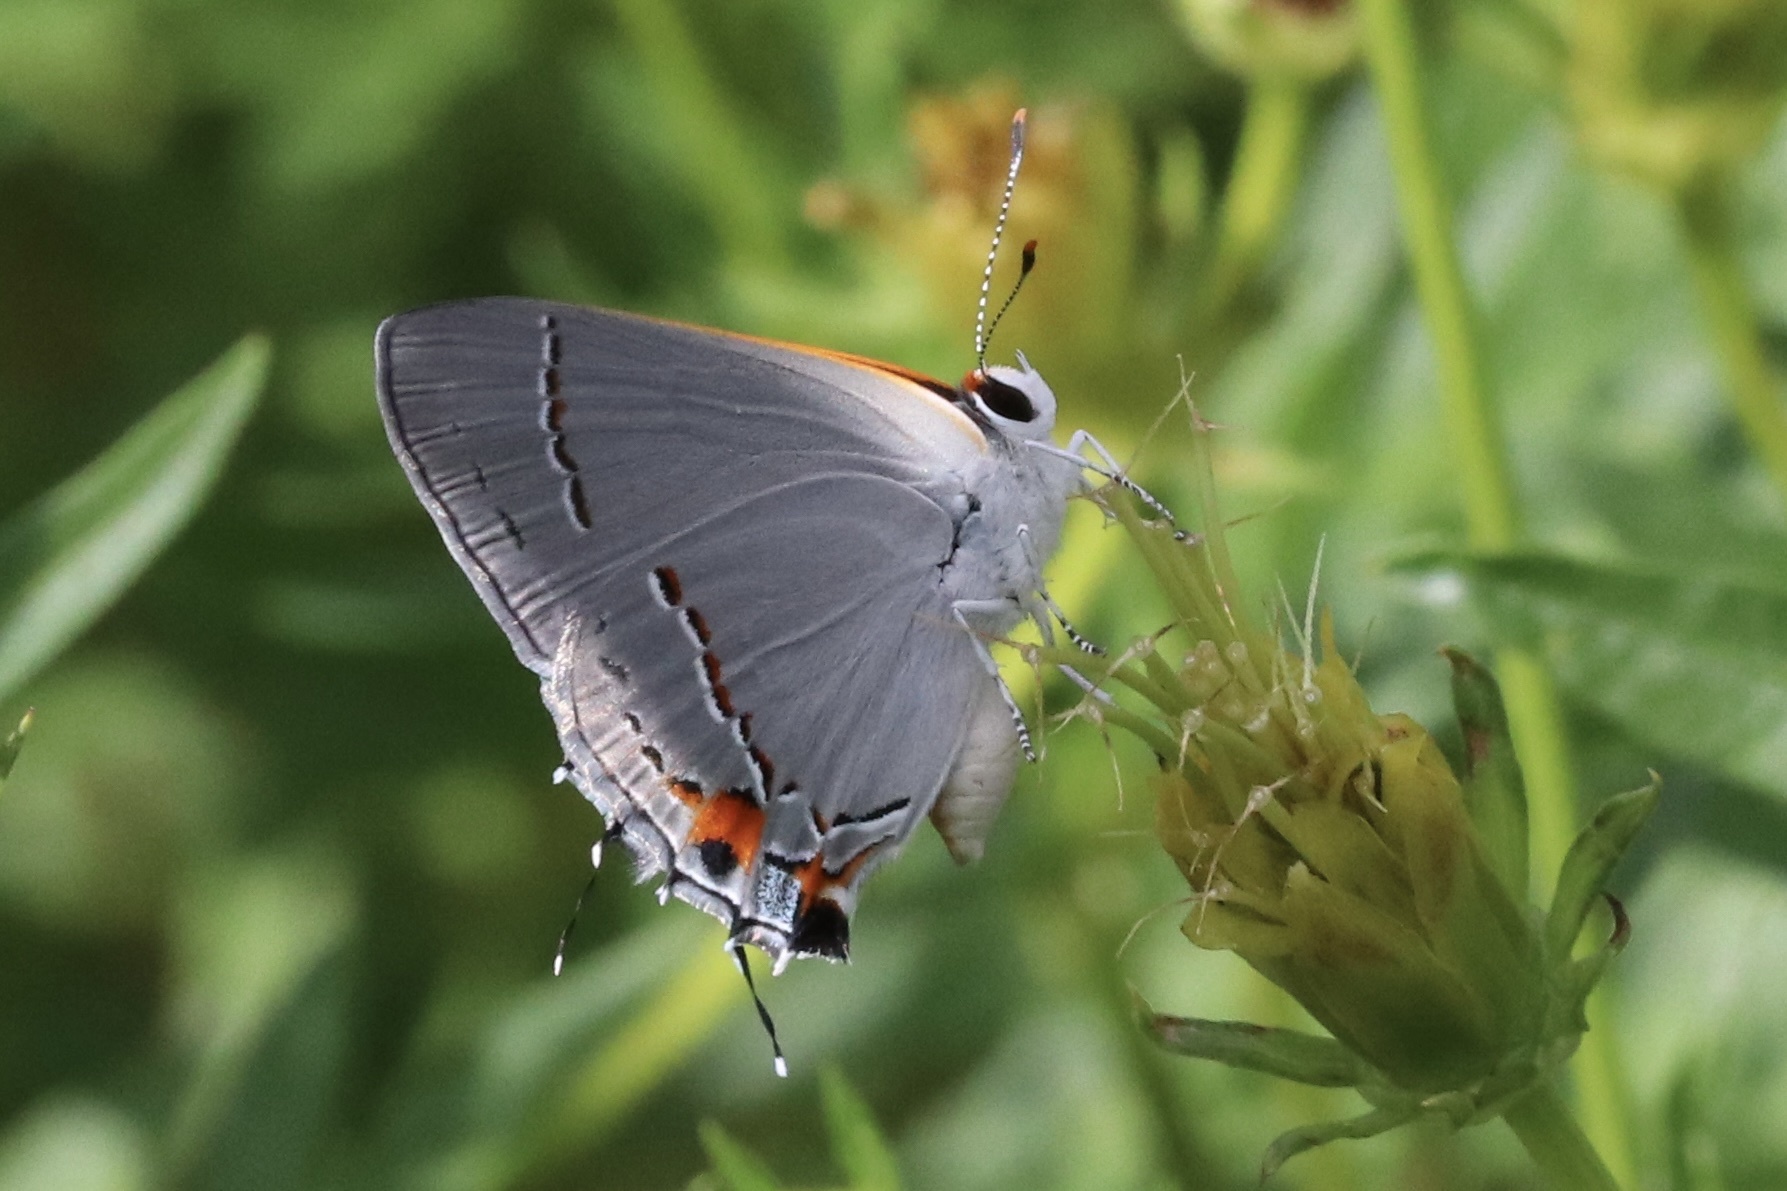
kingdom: Animalia
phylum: Arthropoda
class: Insecta
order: Lepidoptera
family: Lycaenidae
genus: Strymon
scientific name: Strymon melinus
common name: Gray hairstreak
